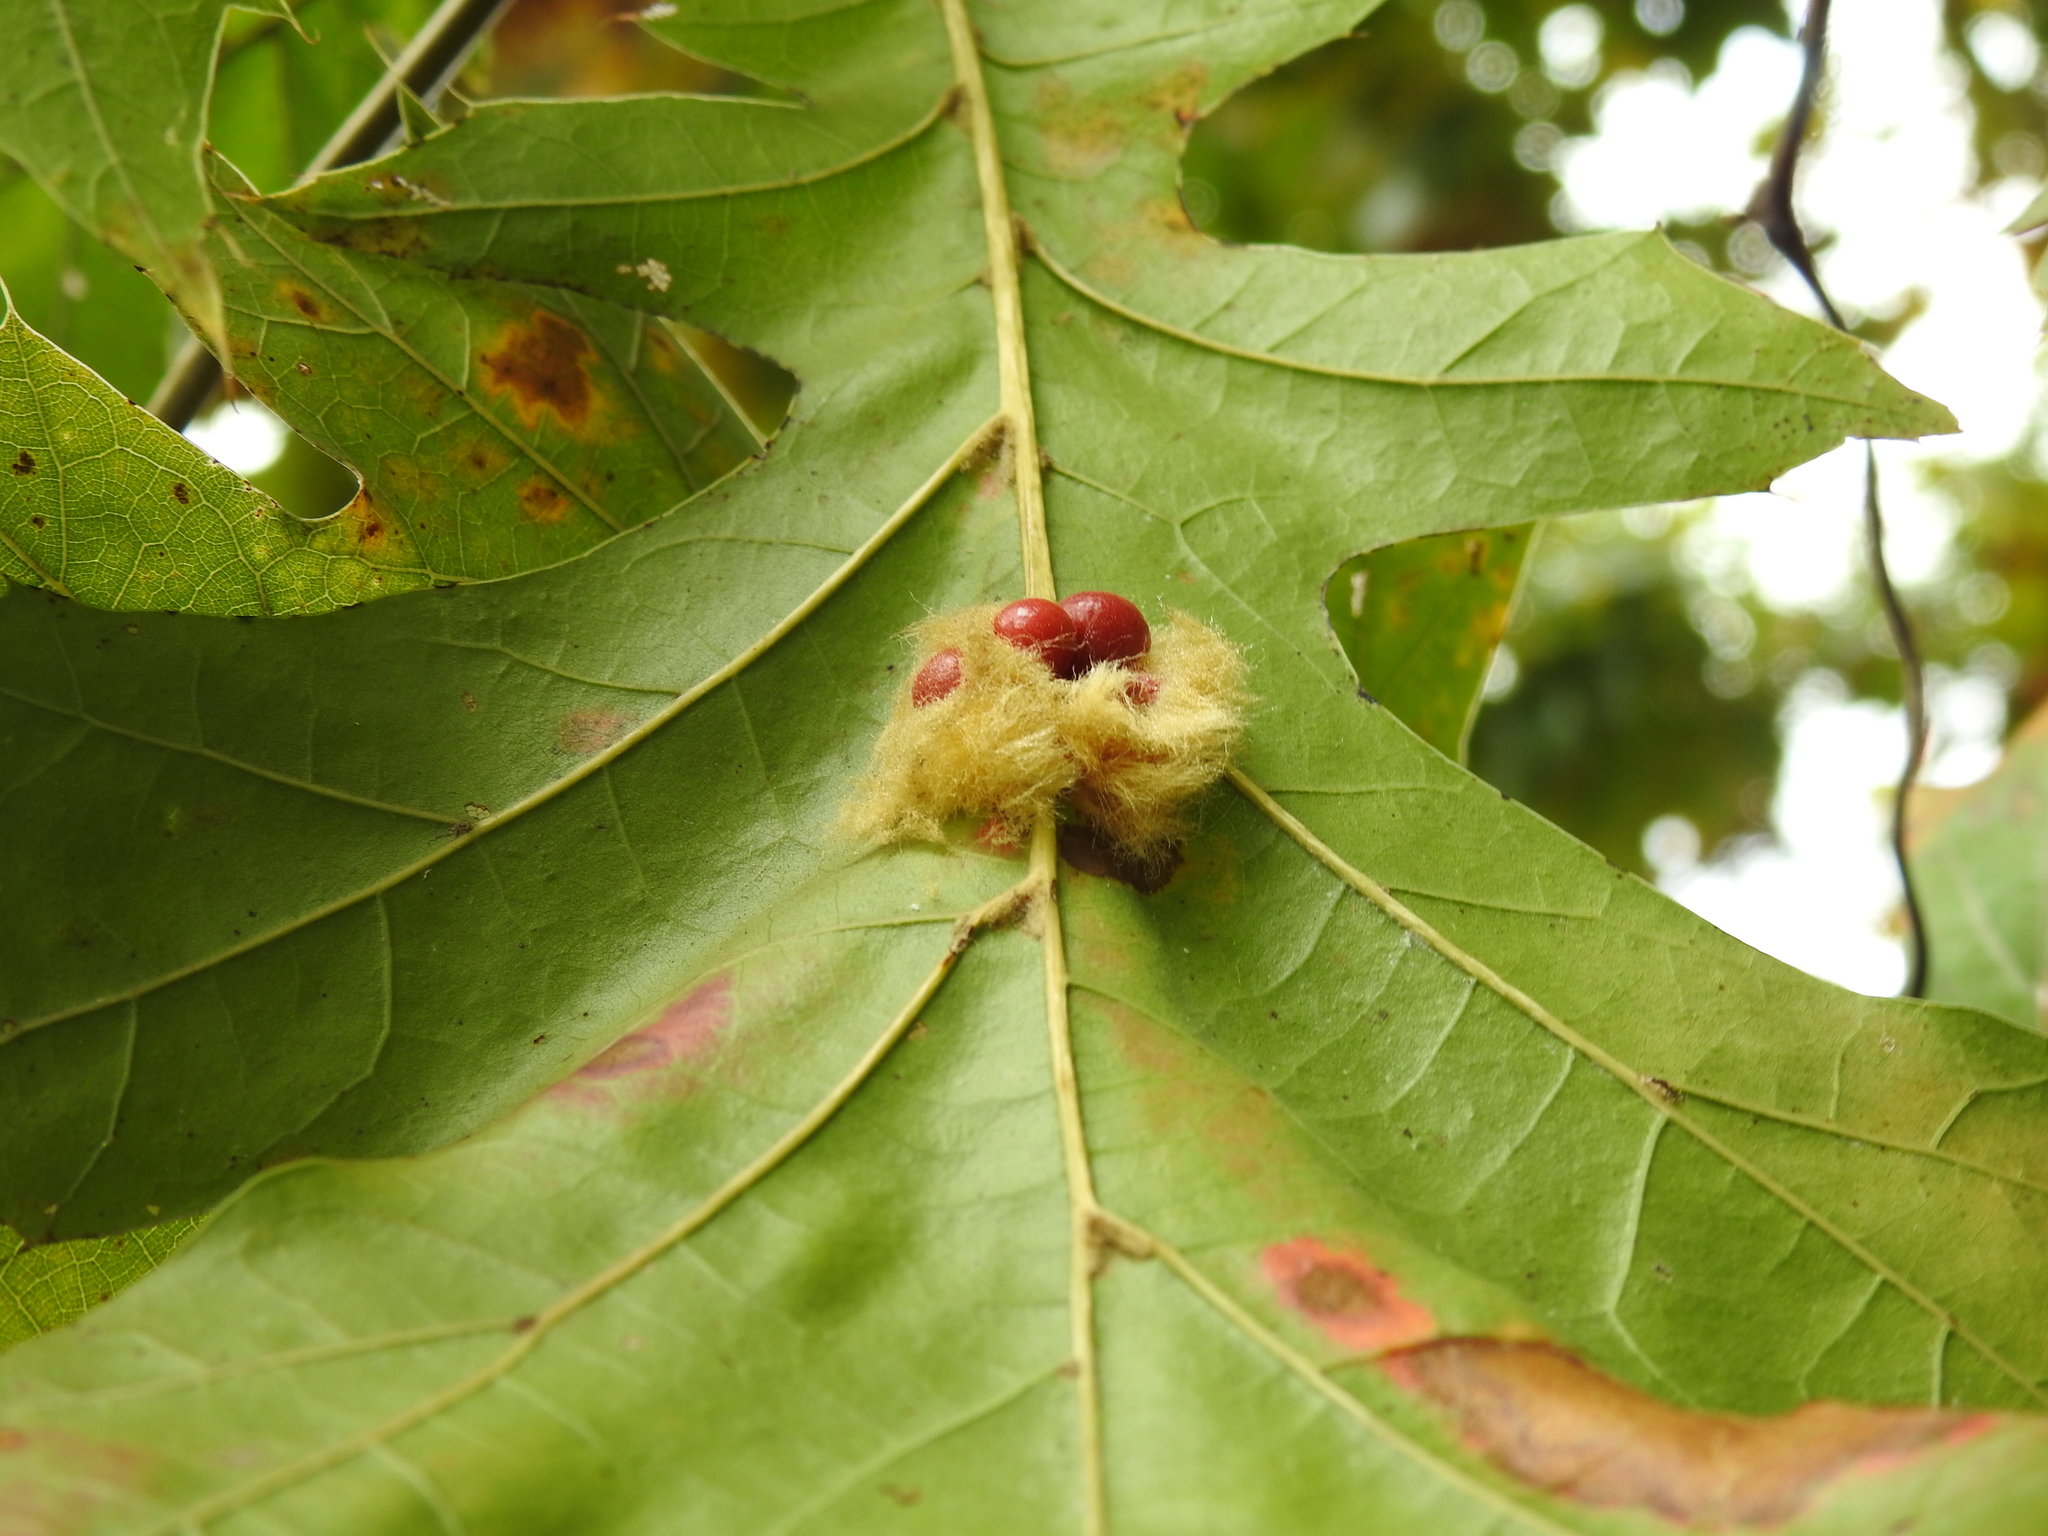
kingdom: Animalia
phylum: Arthropoda
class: Insecta
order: Hymenoptera
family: Cynipidae
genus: Callirhytis
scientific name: Callirhytis
